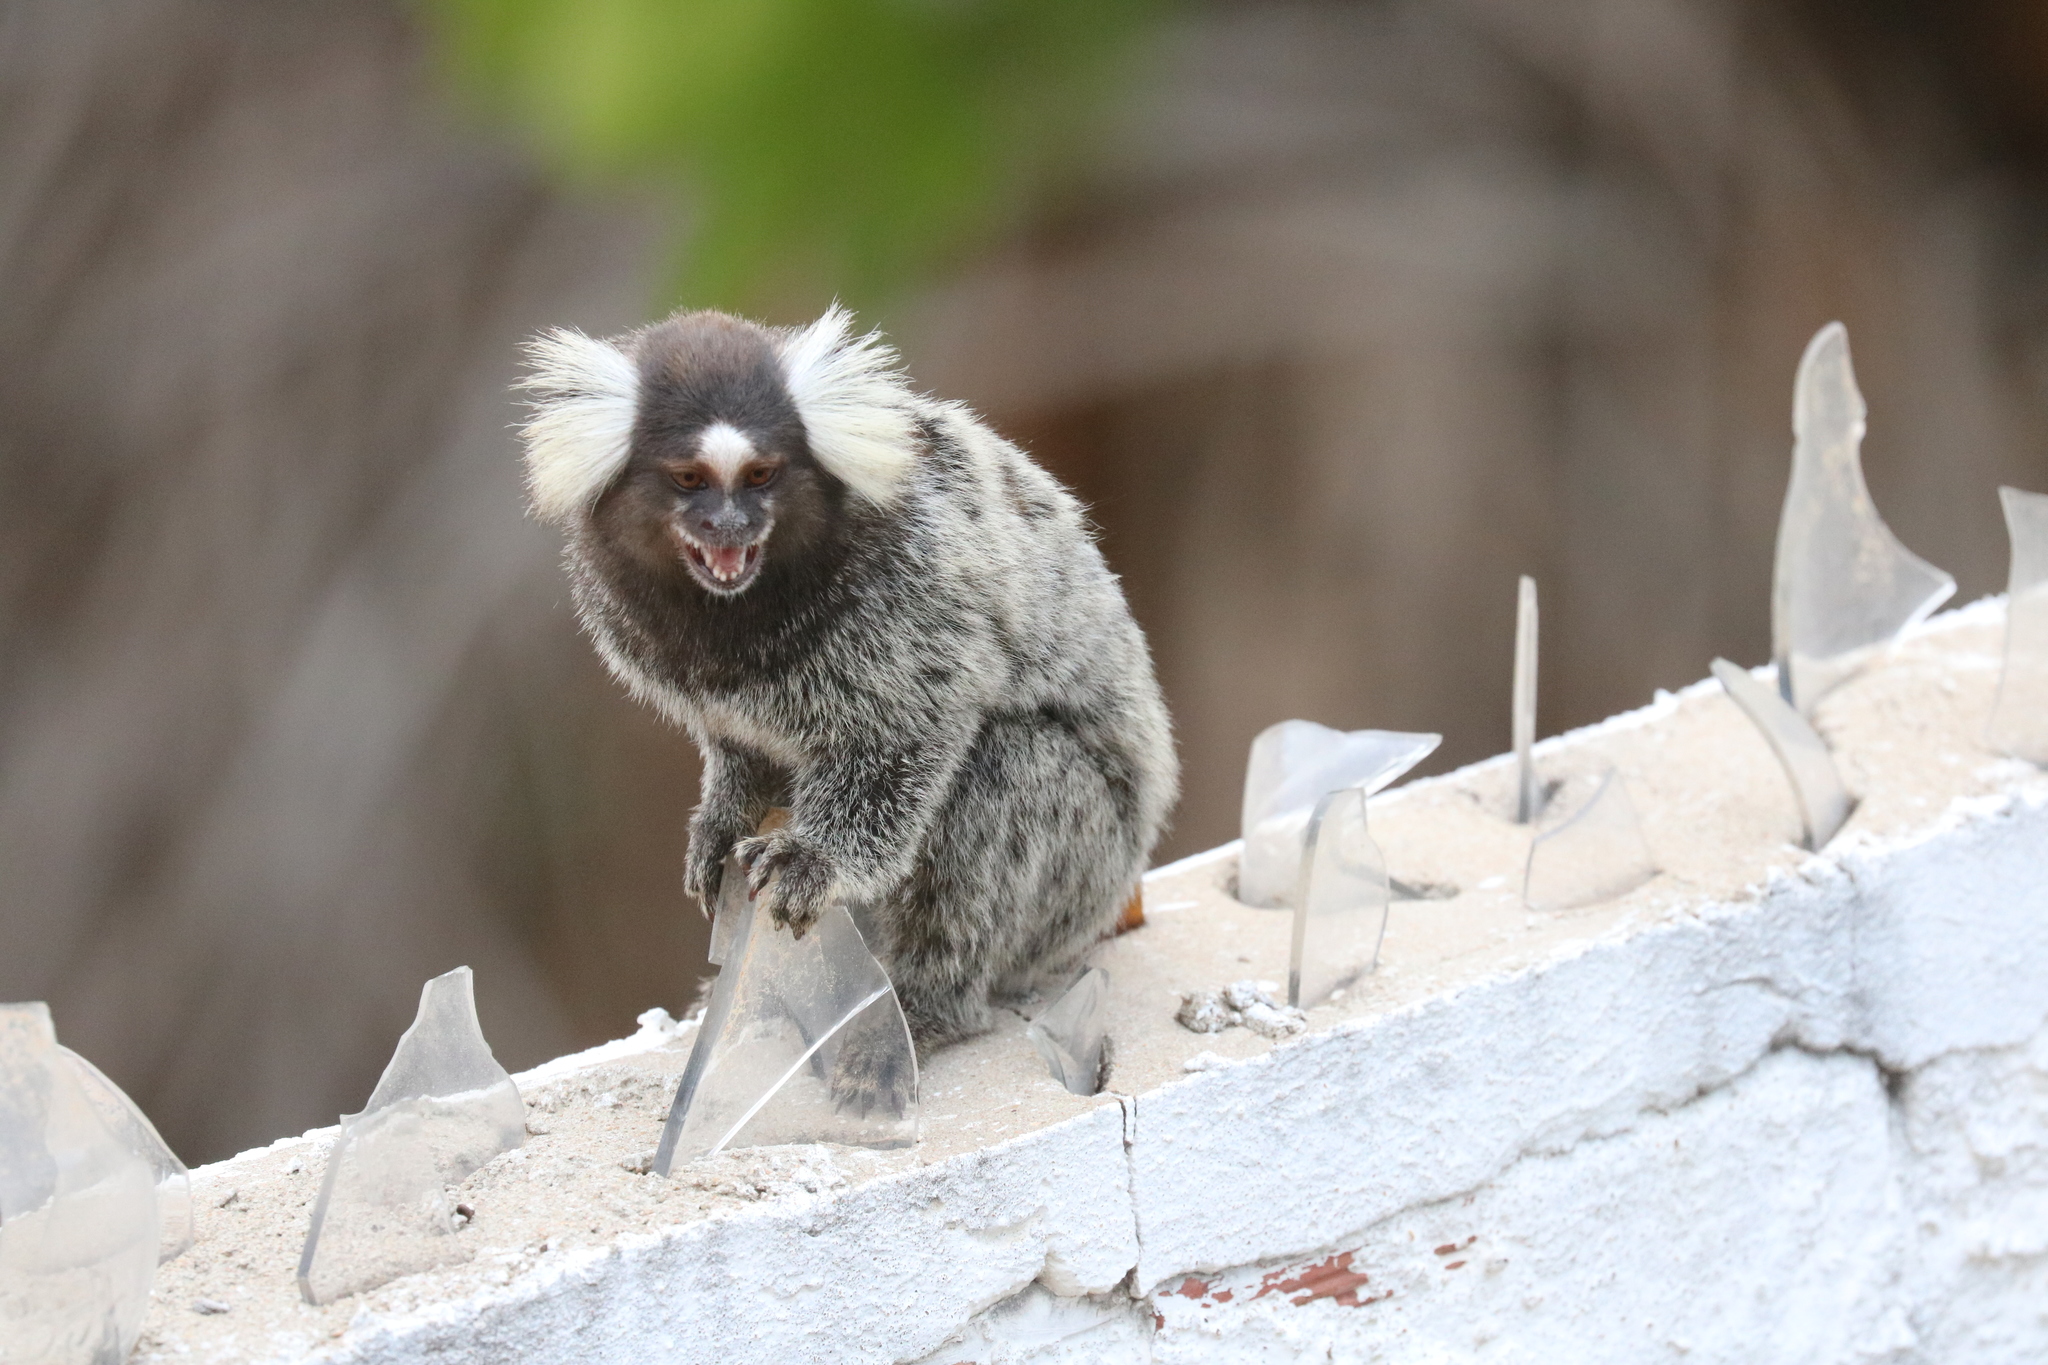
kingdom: Animalia
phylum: Chordata
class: Mammalia
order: Primates
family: Callitrichidae
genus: Callithrix
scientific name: Callithrix jacchus
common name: Common marmoset
